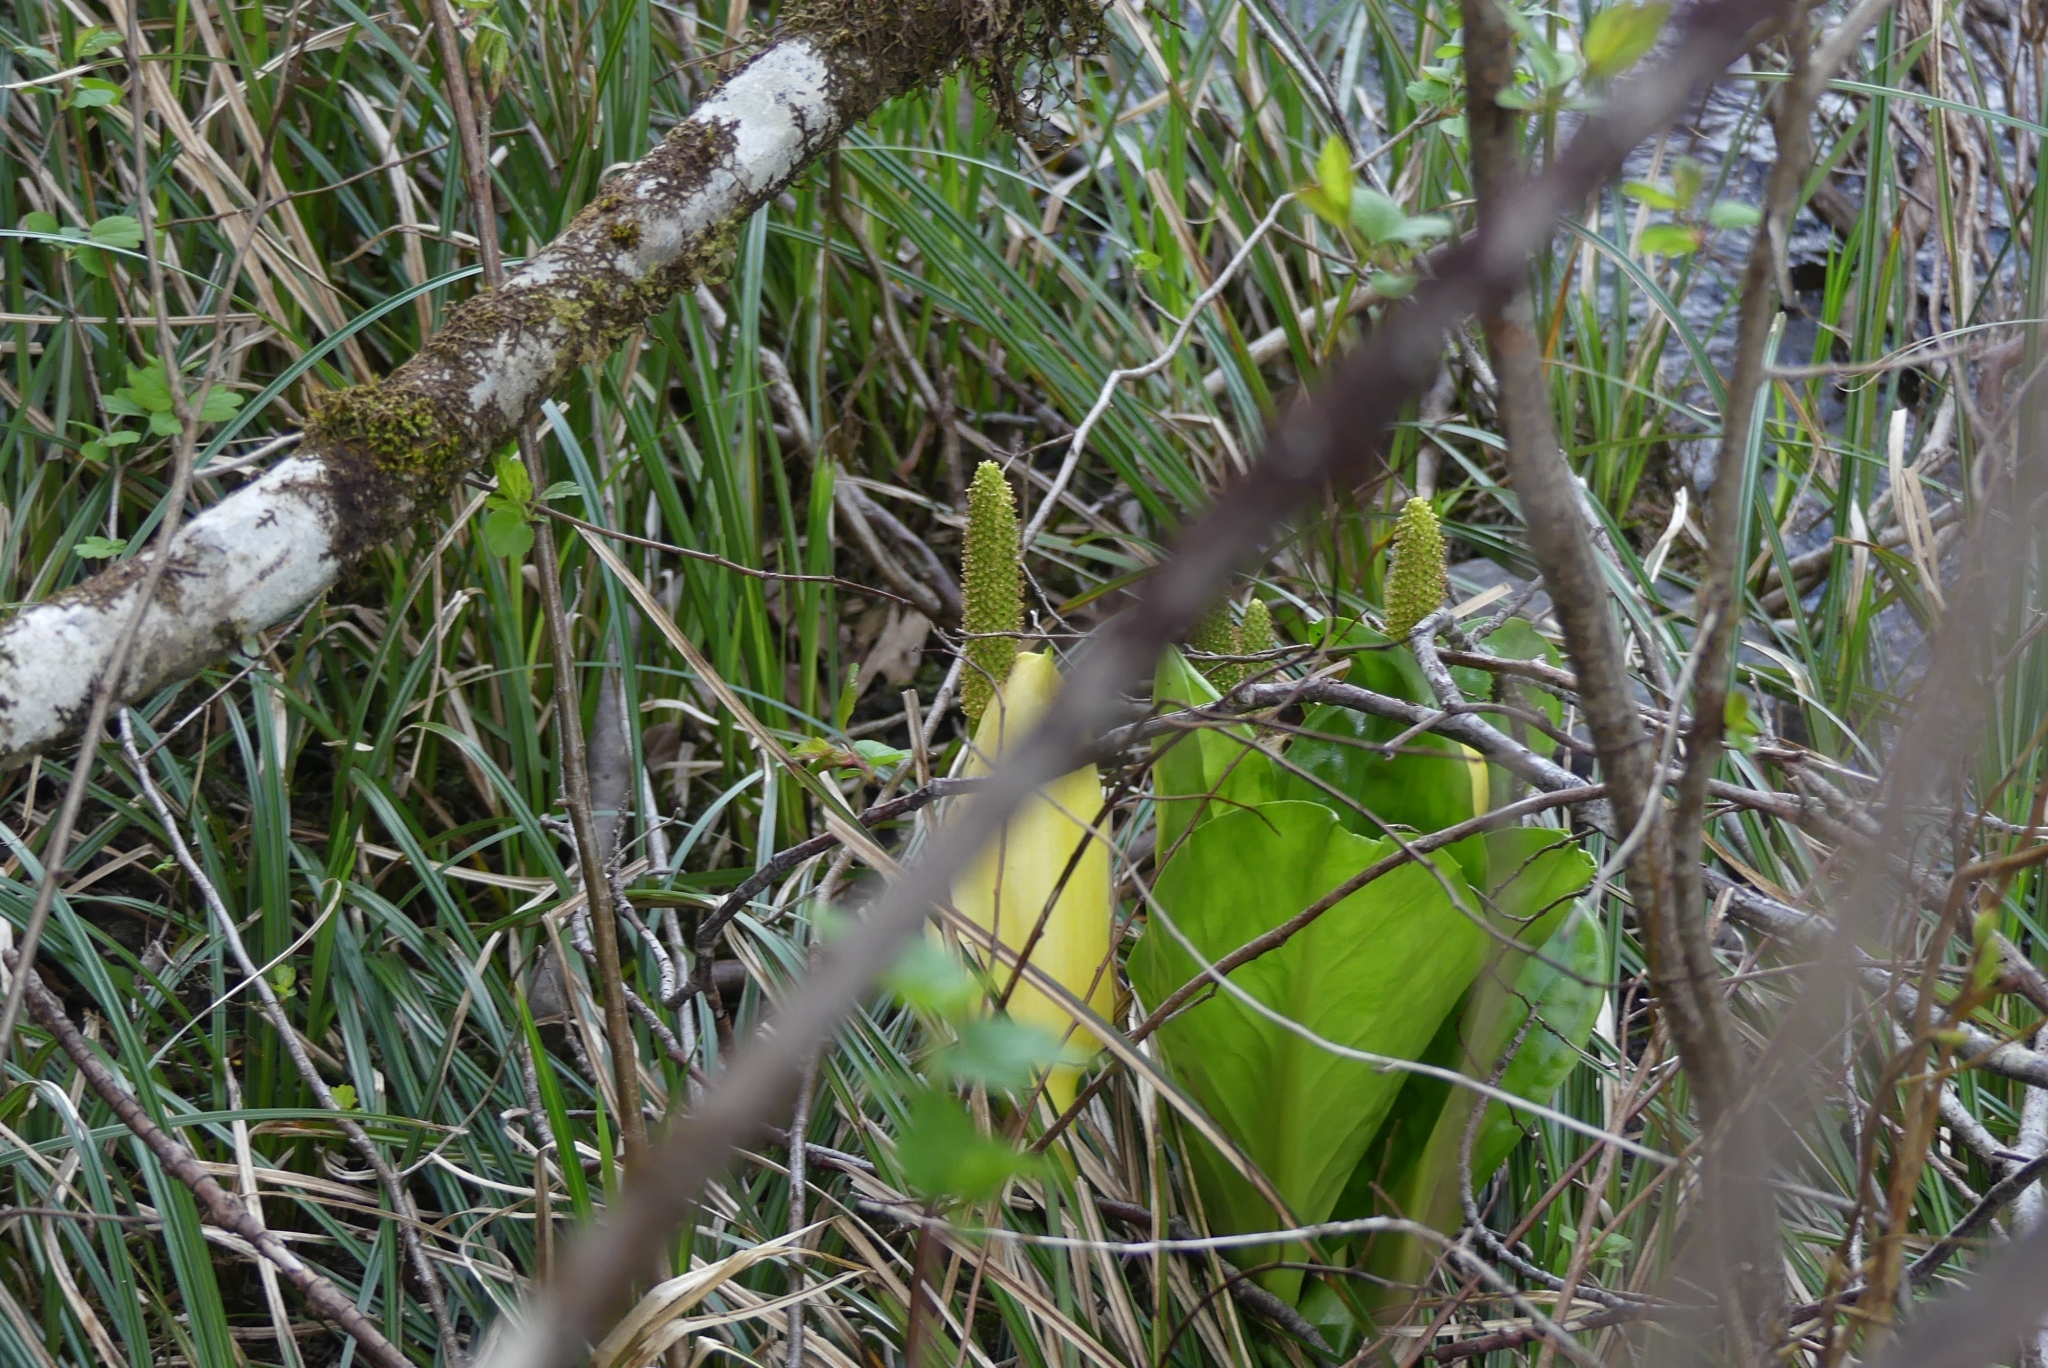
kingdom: Plantae
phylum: Tracheophyta
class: Liliopsida
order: Alismatales
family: Araceae
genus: Lysichiton
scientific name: Lysichiton americanus
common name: American skunk cabbage
